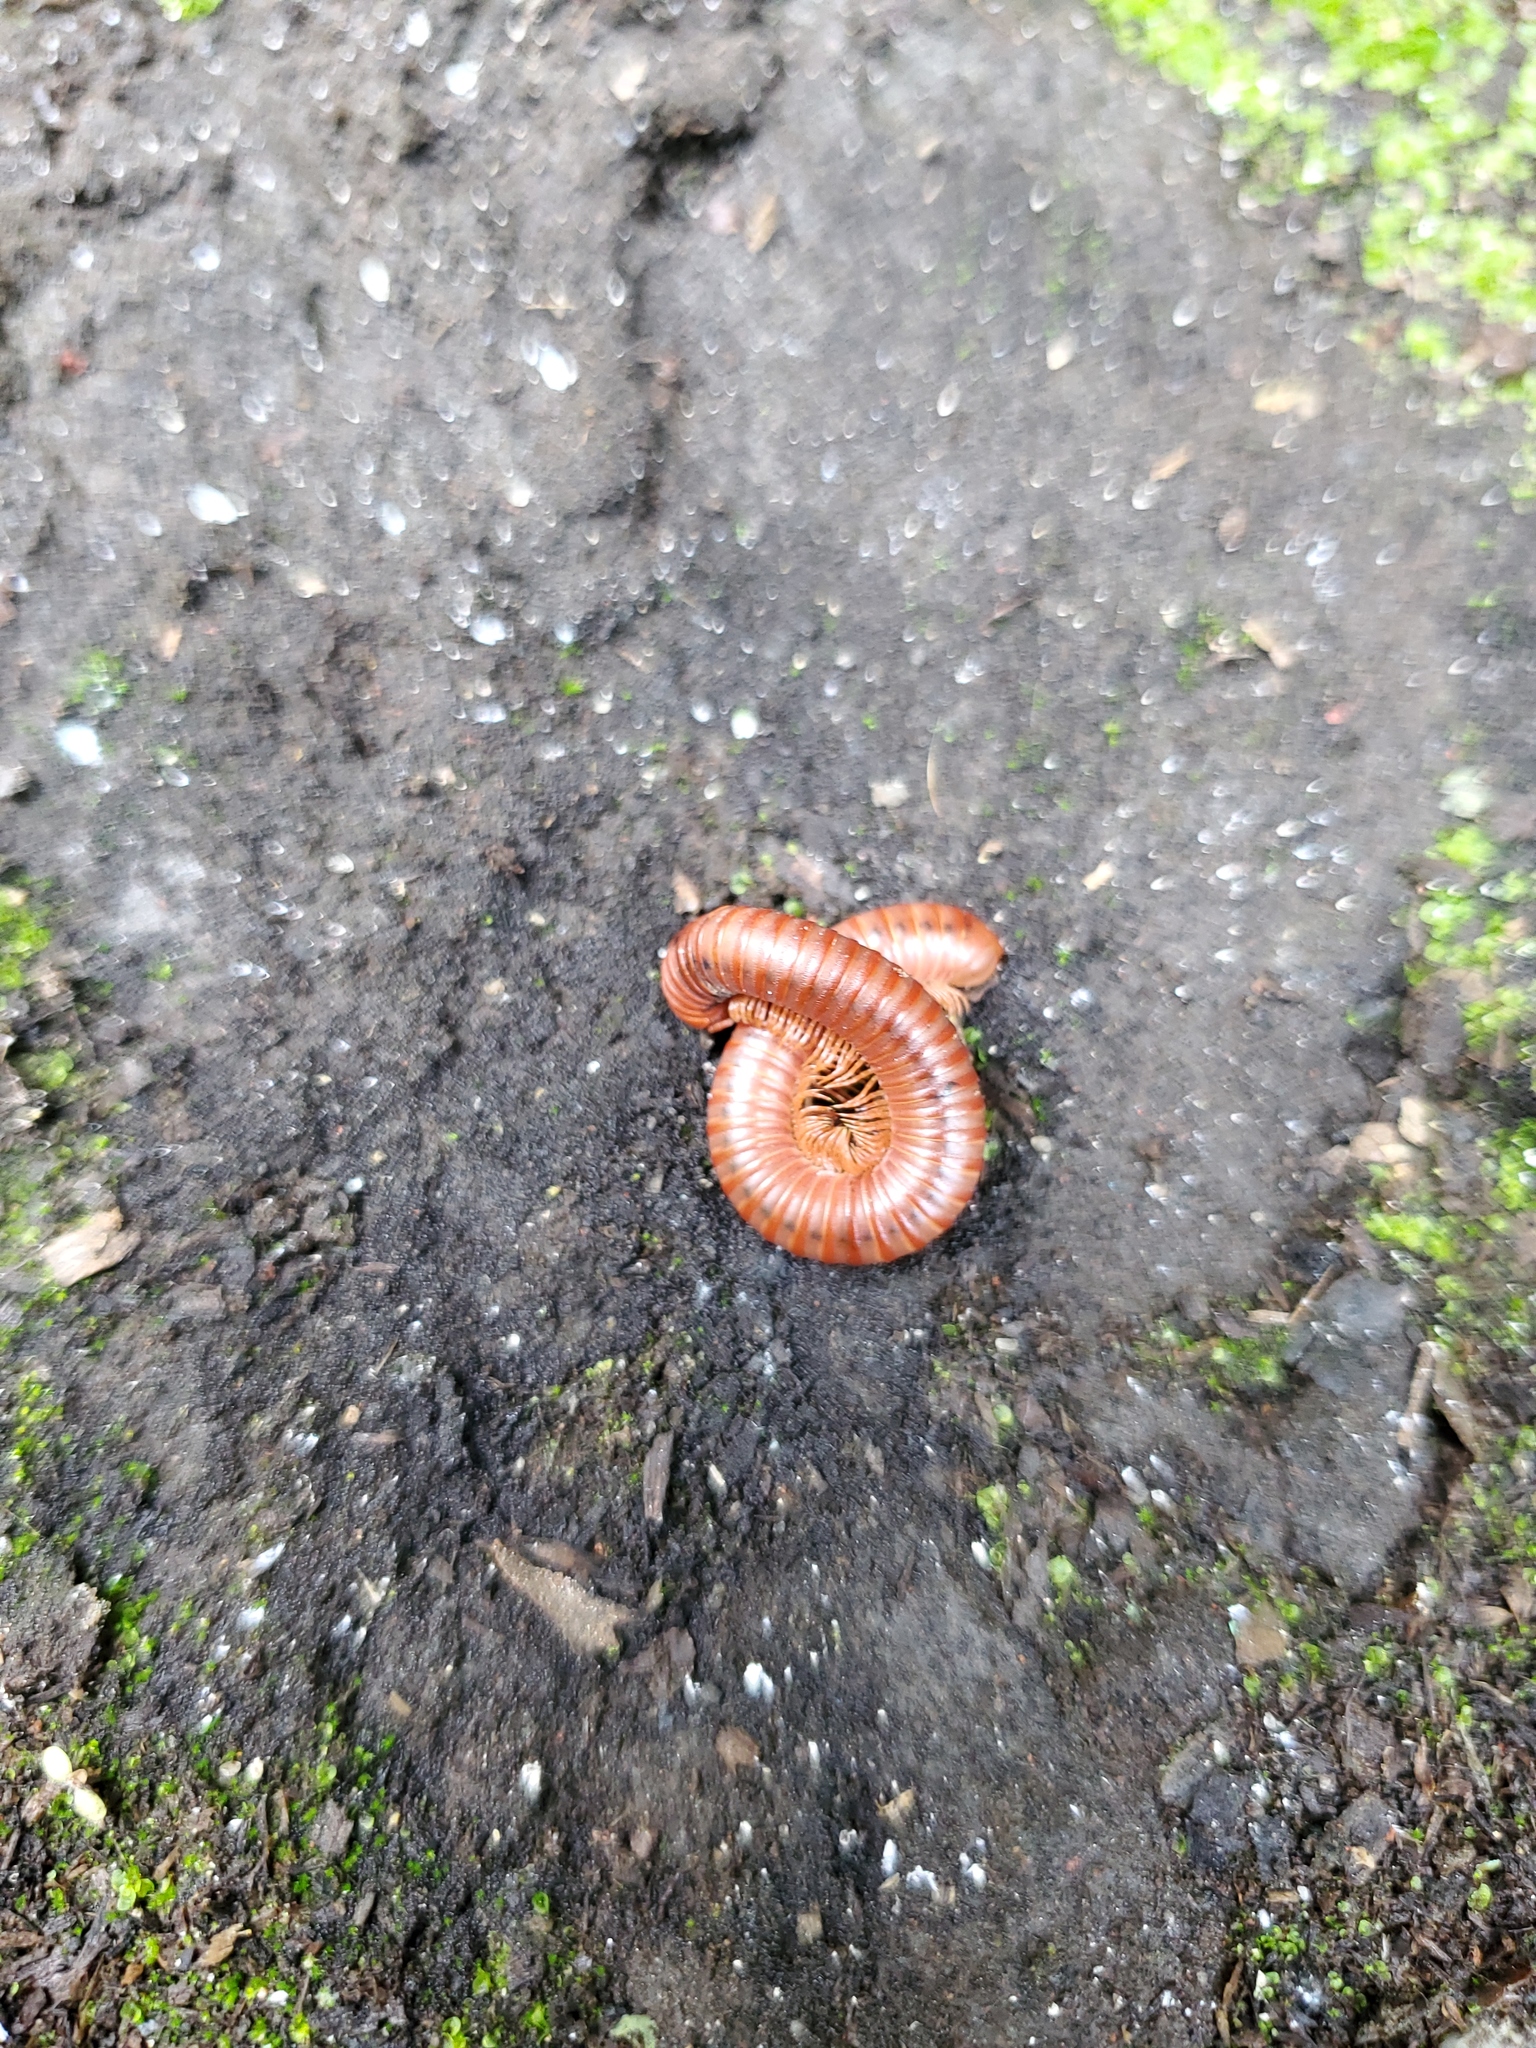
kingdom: Animalia
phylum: Arthropoda
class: Diplopoda
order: Spirobolida
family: Pachybolidae
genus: Trigoniulus
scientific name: Trigoniulus corallinus
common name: Millipede
